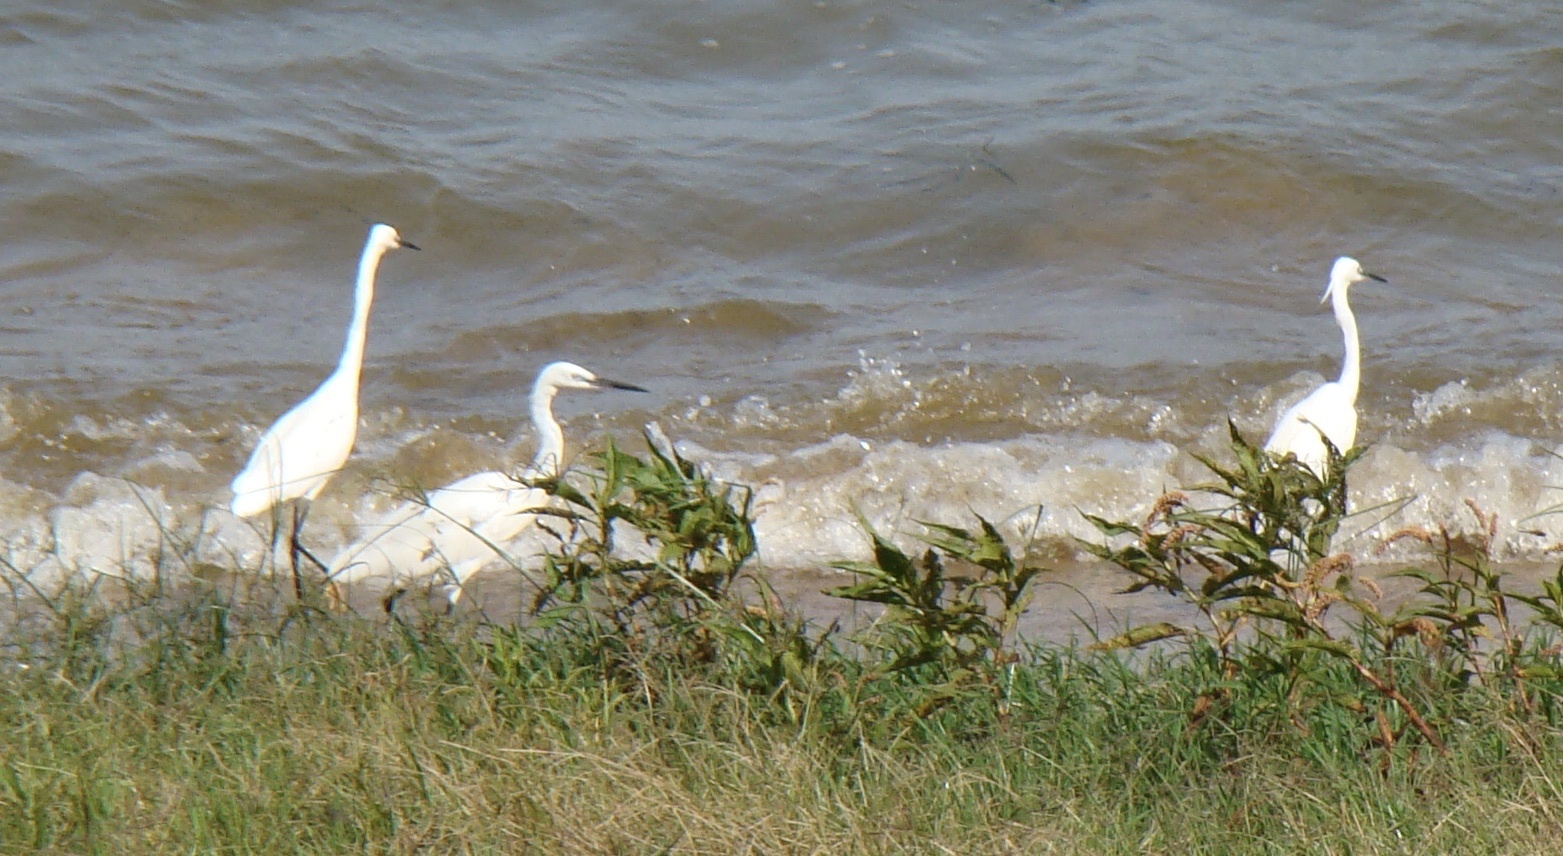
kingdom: Animalia
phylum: Chordata
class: Aves
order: Pelecaniformes
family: Ardeidae
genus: Egretta
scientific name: Egretta garzetta
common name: Little egret
